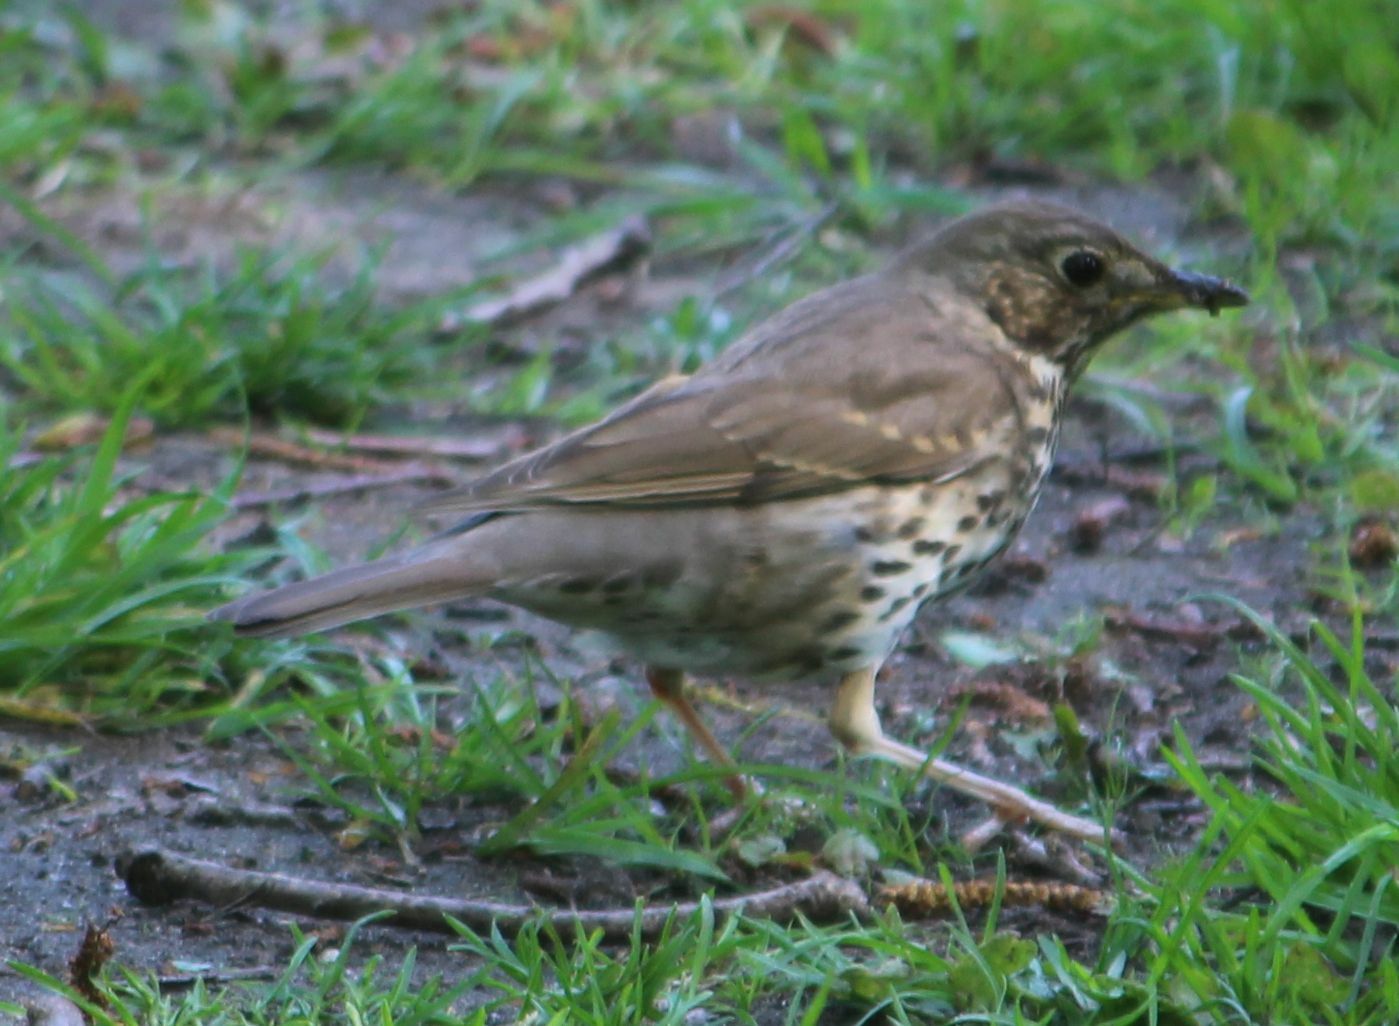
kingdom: Animalia
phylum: Chordata
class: Aves
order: Passeriformes
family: Turdidae
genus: Turdus
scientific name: Turdus philomelos
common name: Song thrush
